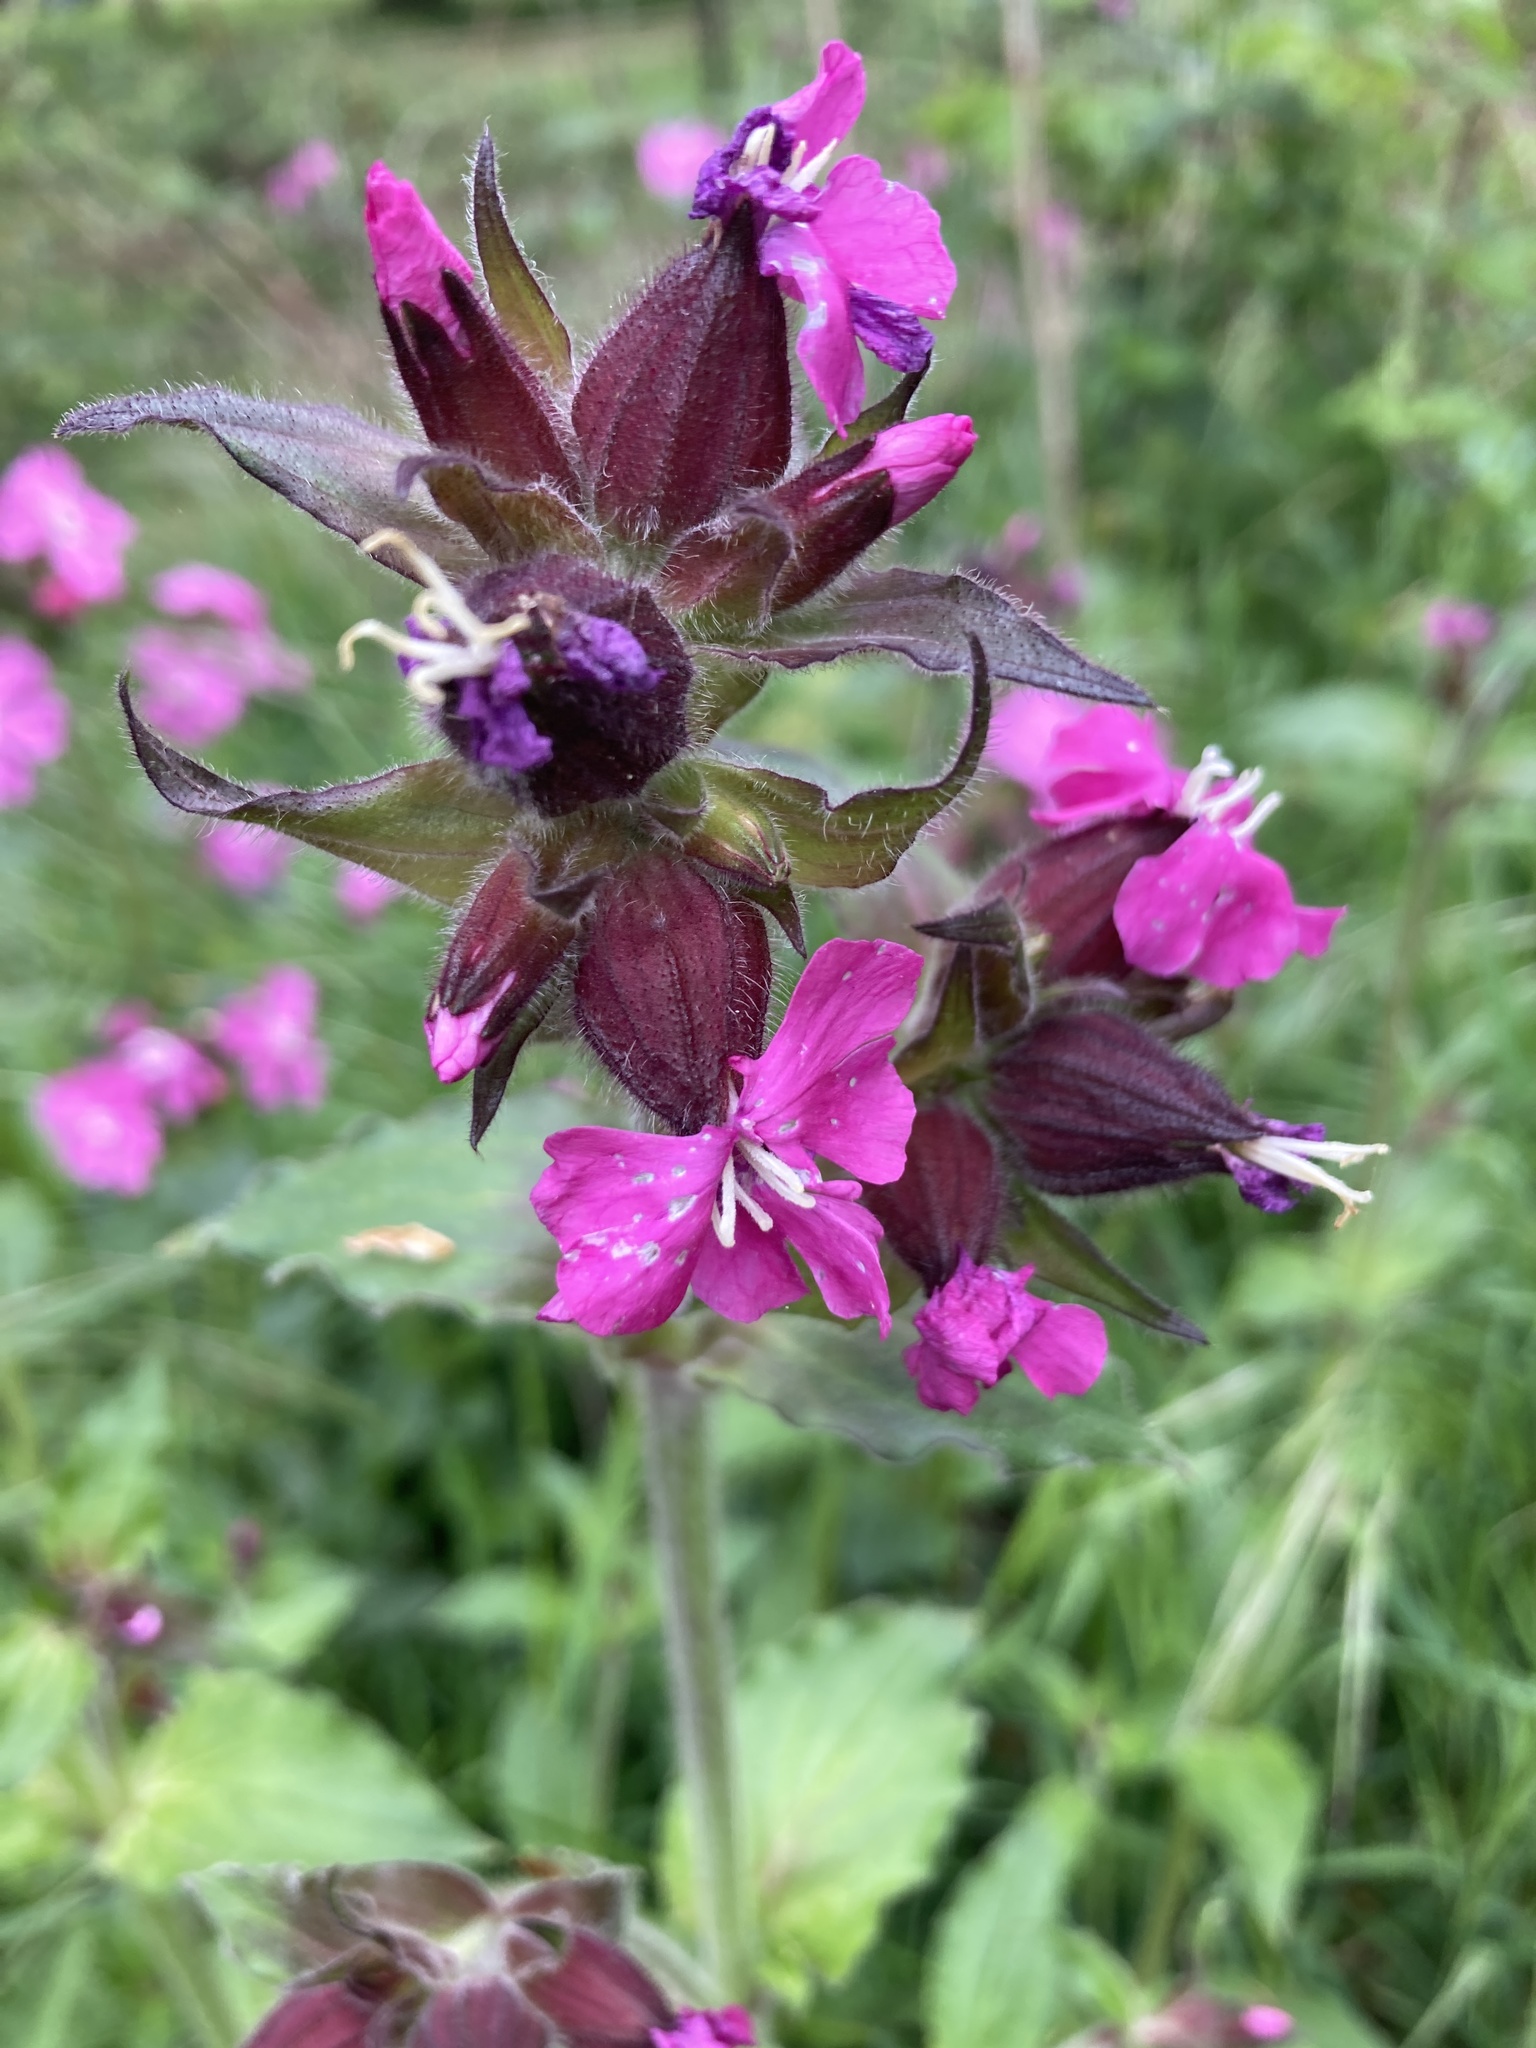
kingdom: Plantae
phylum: Tracheophyta
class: Magnoliopsida
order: Caryophyllales
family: Caryophyllaceae
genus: Silene
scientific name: Silene dioica
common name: Red campion
